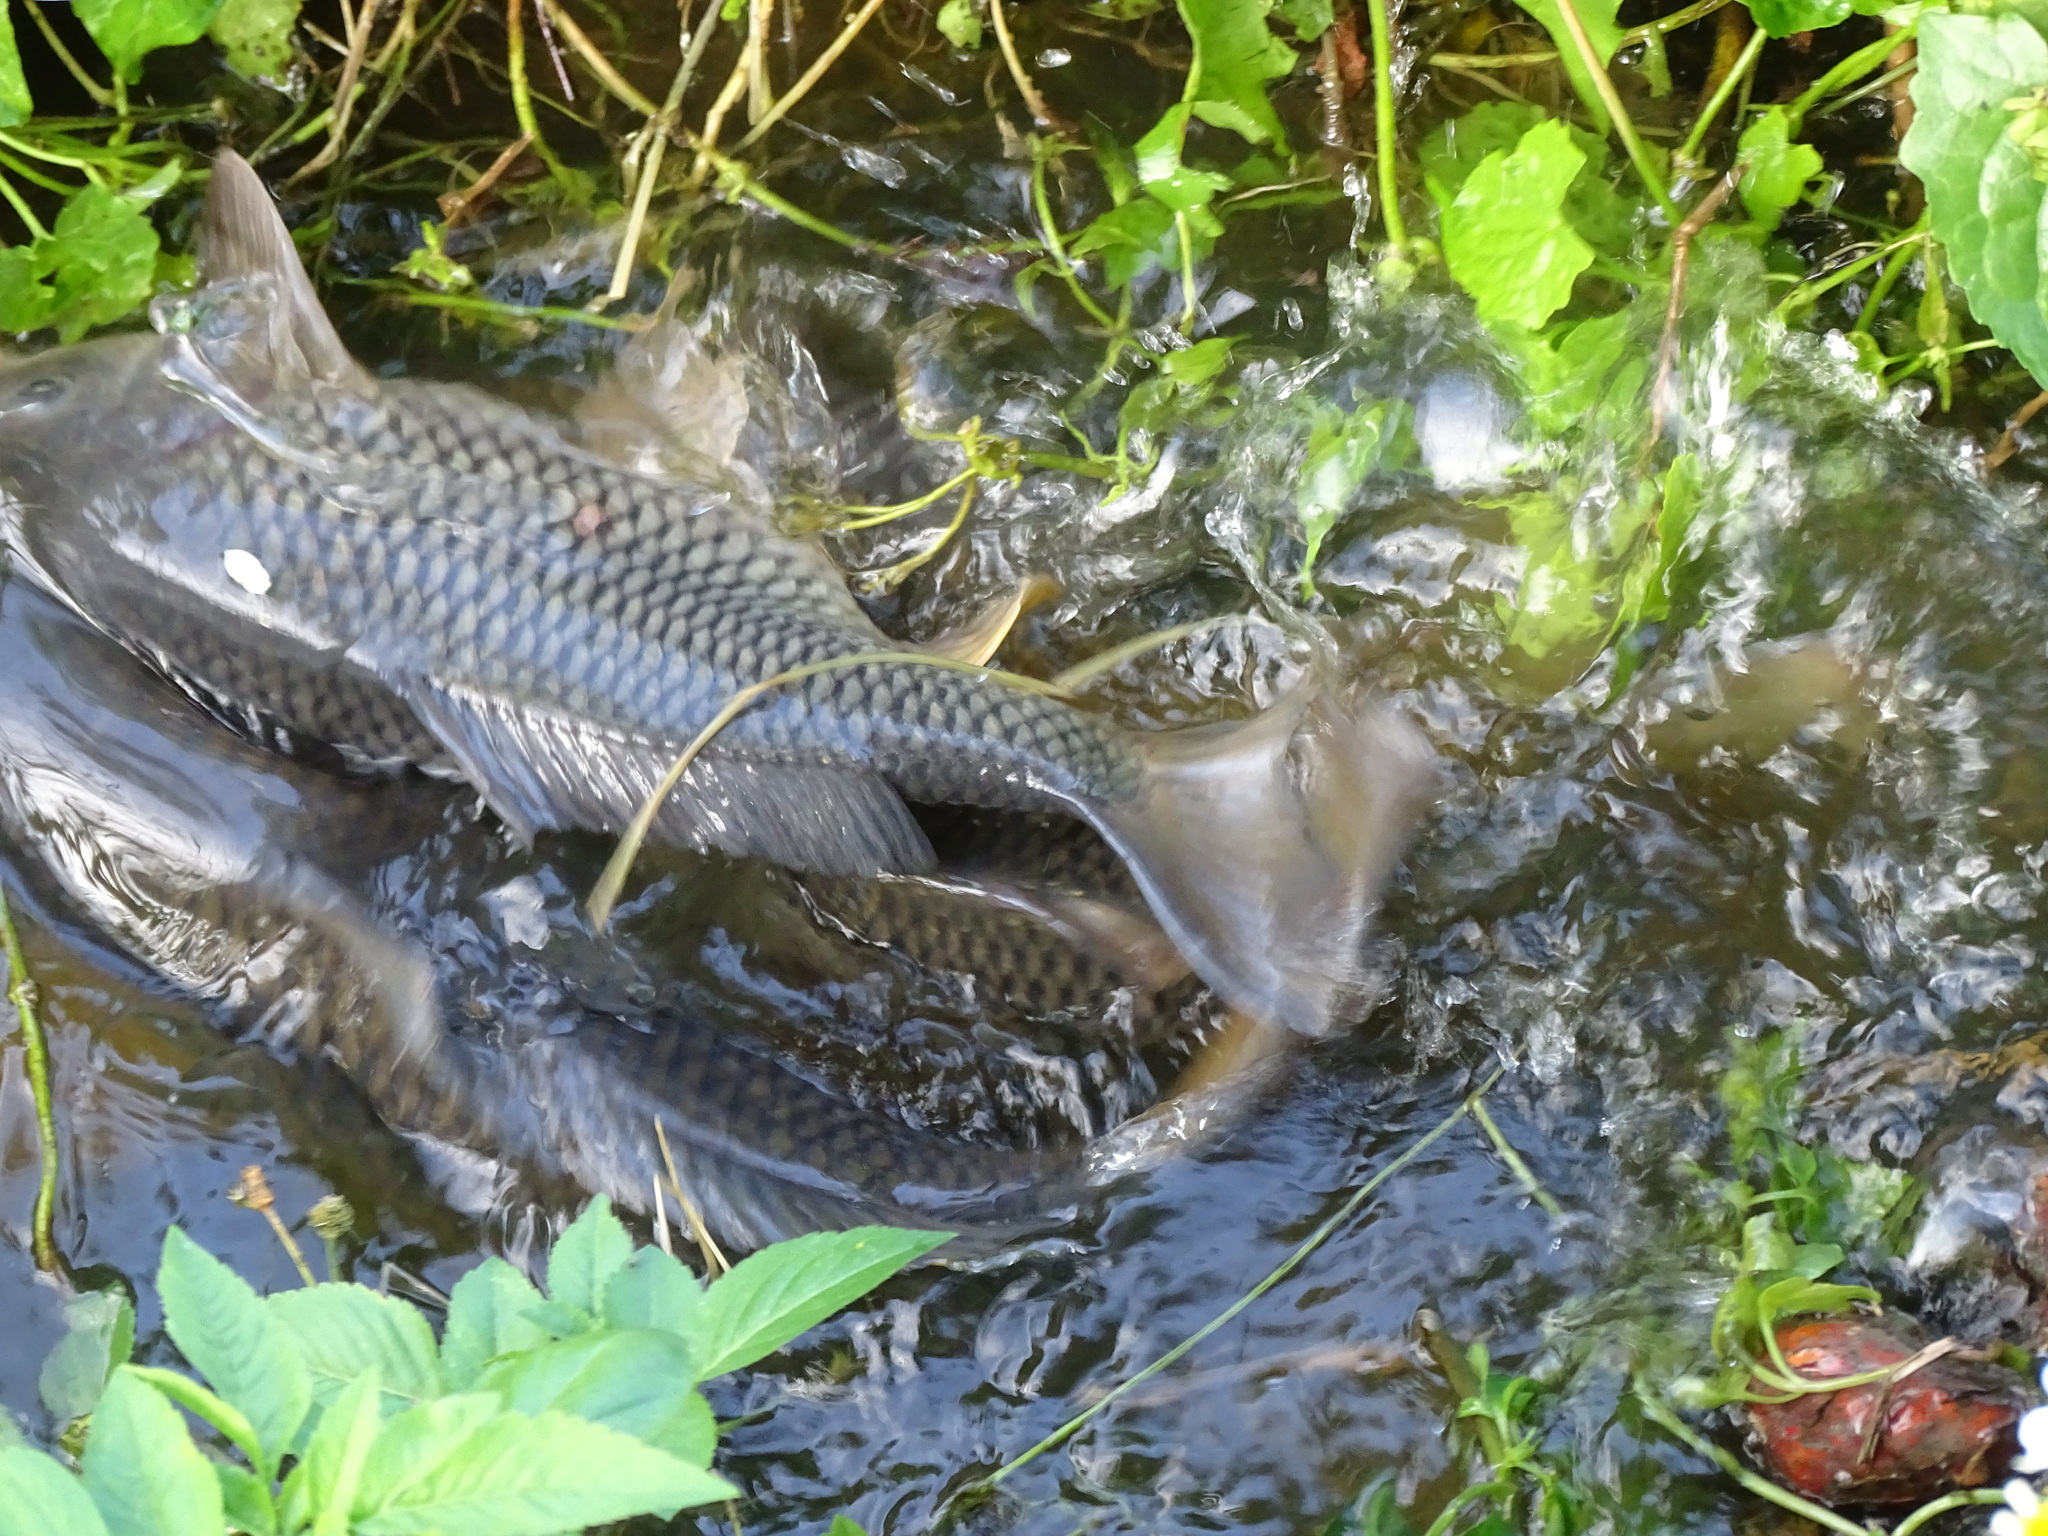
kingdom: Animalia
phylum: Chordata
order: Cypriniformes
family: Cyprinidae
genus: Cyprinus
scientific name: Cyprinus carpio
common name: Common carp
